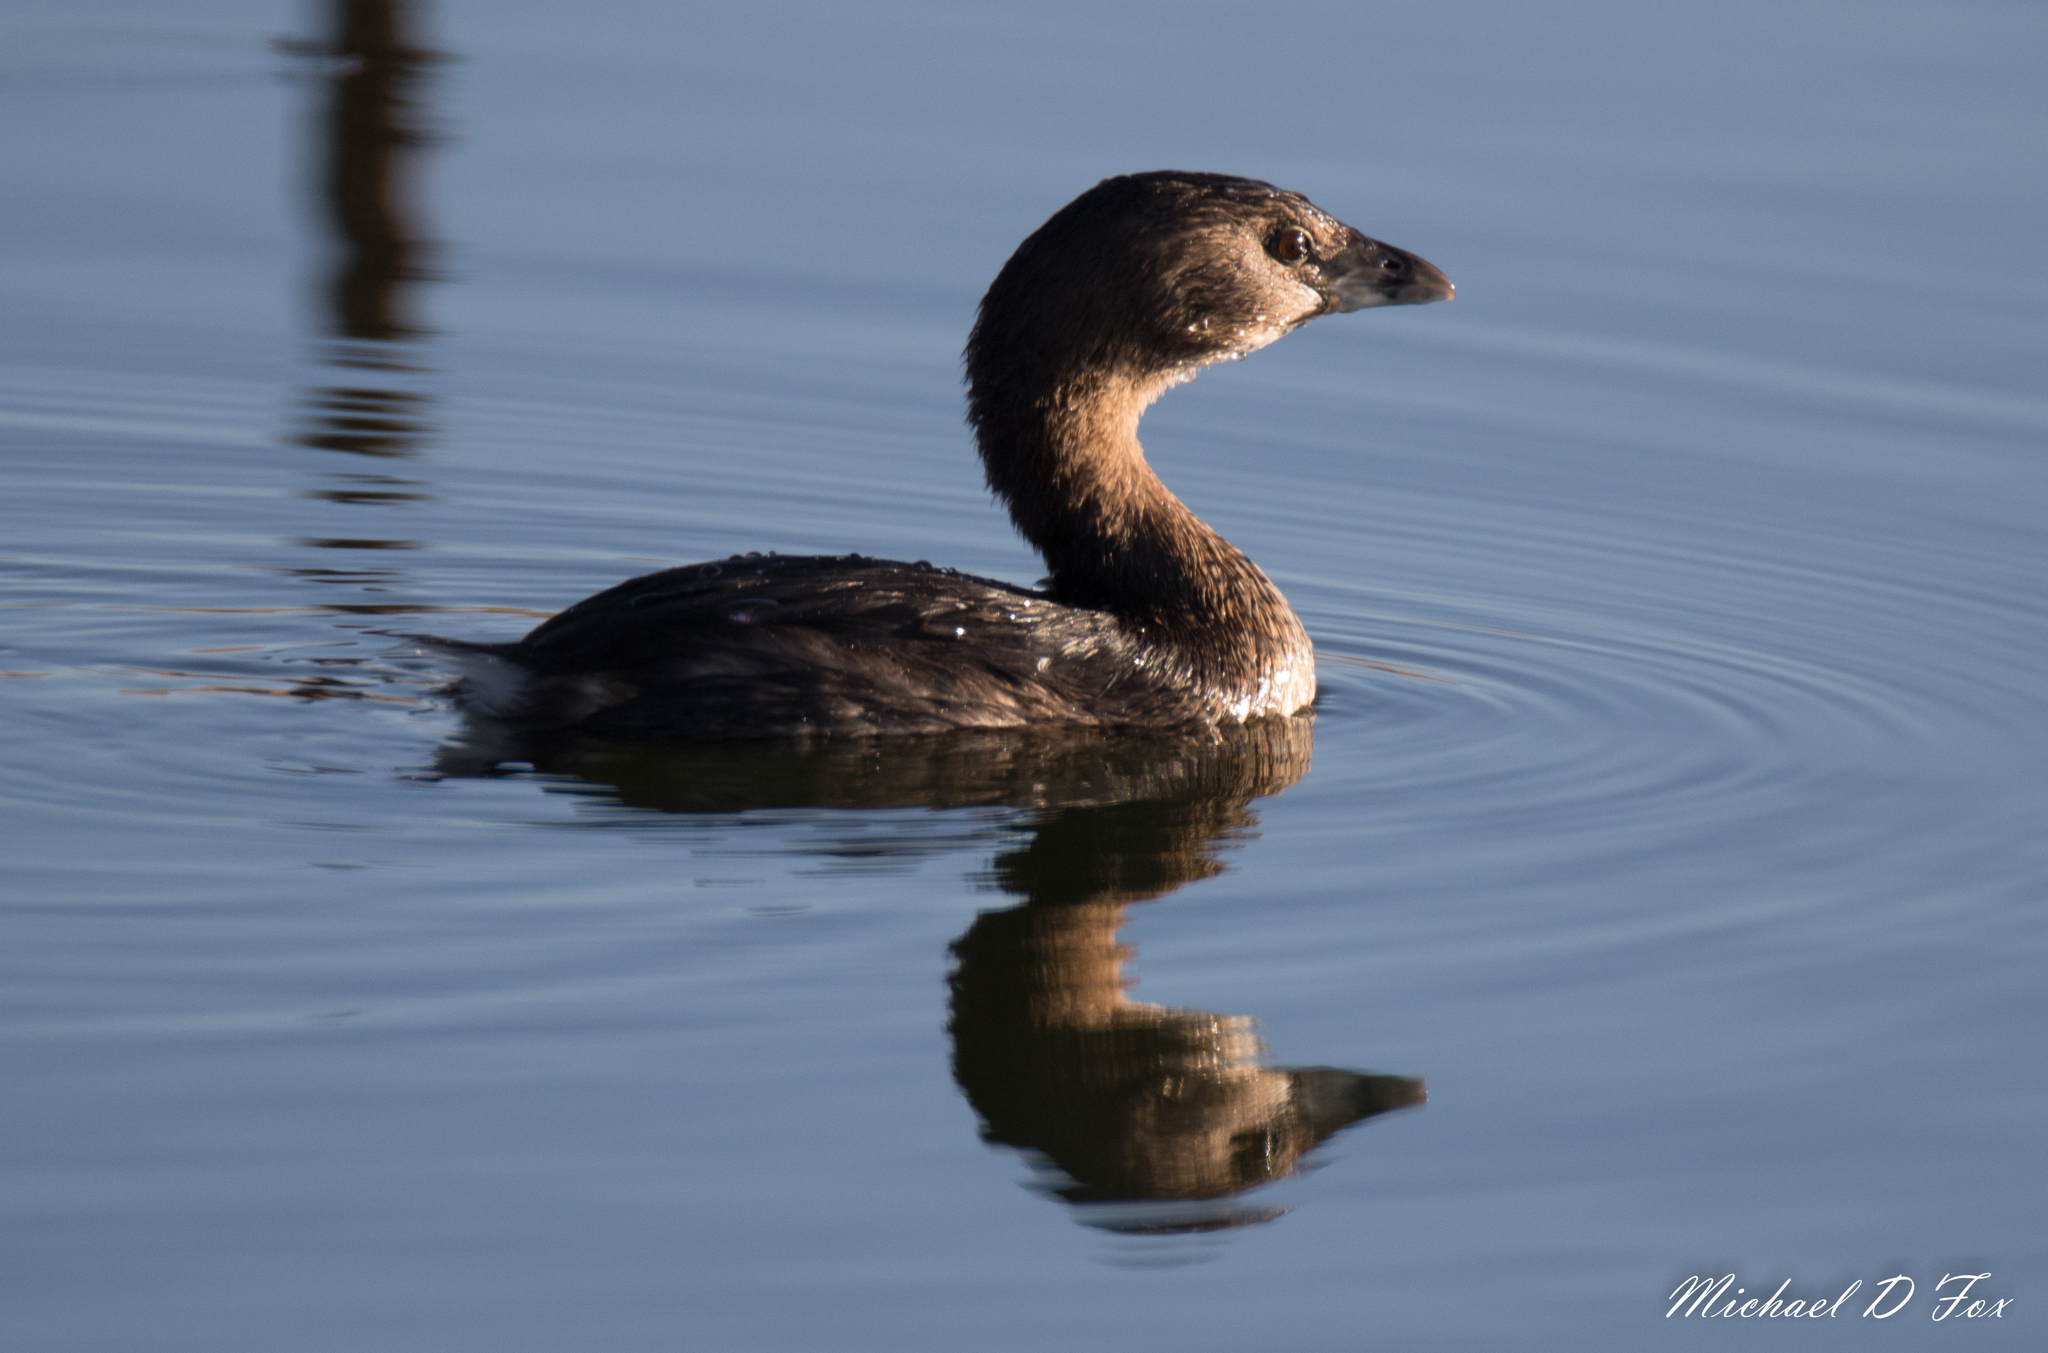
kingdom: Animalia
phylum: Chordata
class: Aves
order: Podicipediformes
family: Podicipedidae
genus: Podilymbus
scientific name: Podilymbus podiceps
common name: Pied-billed grebe
